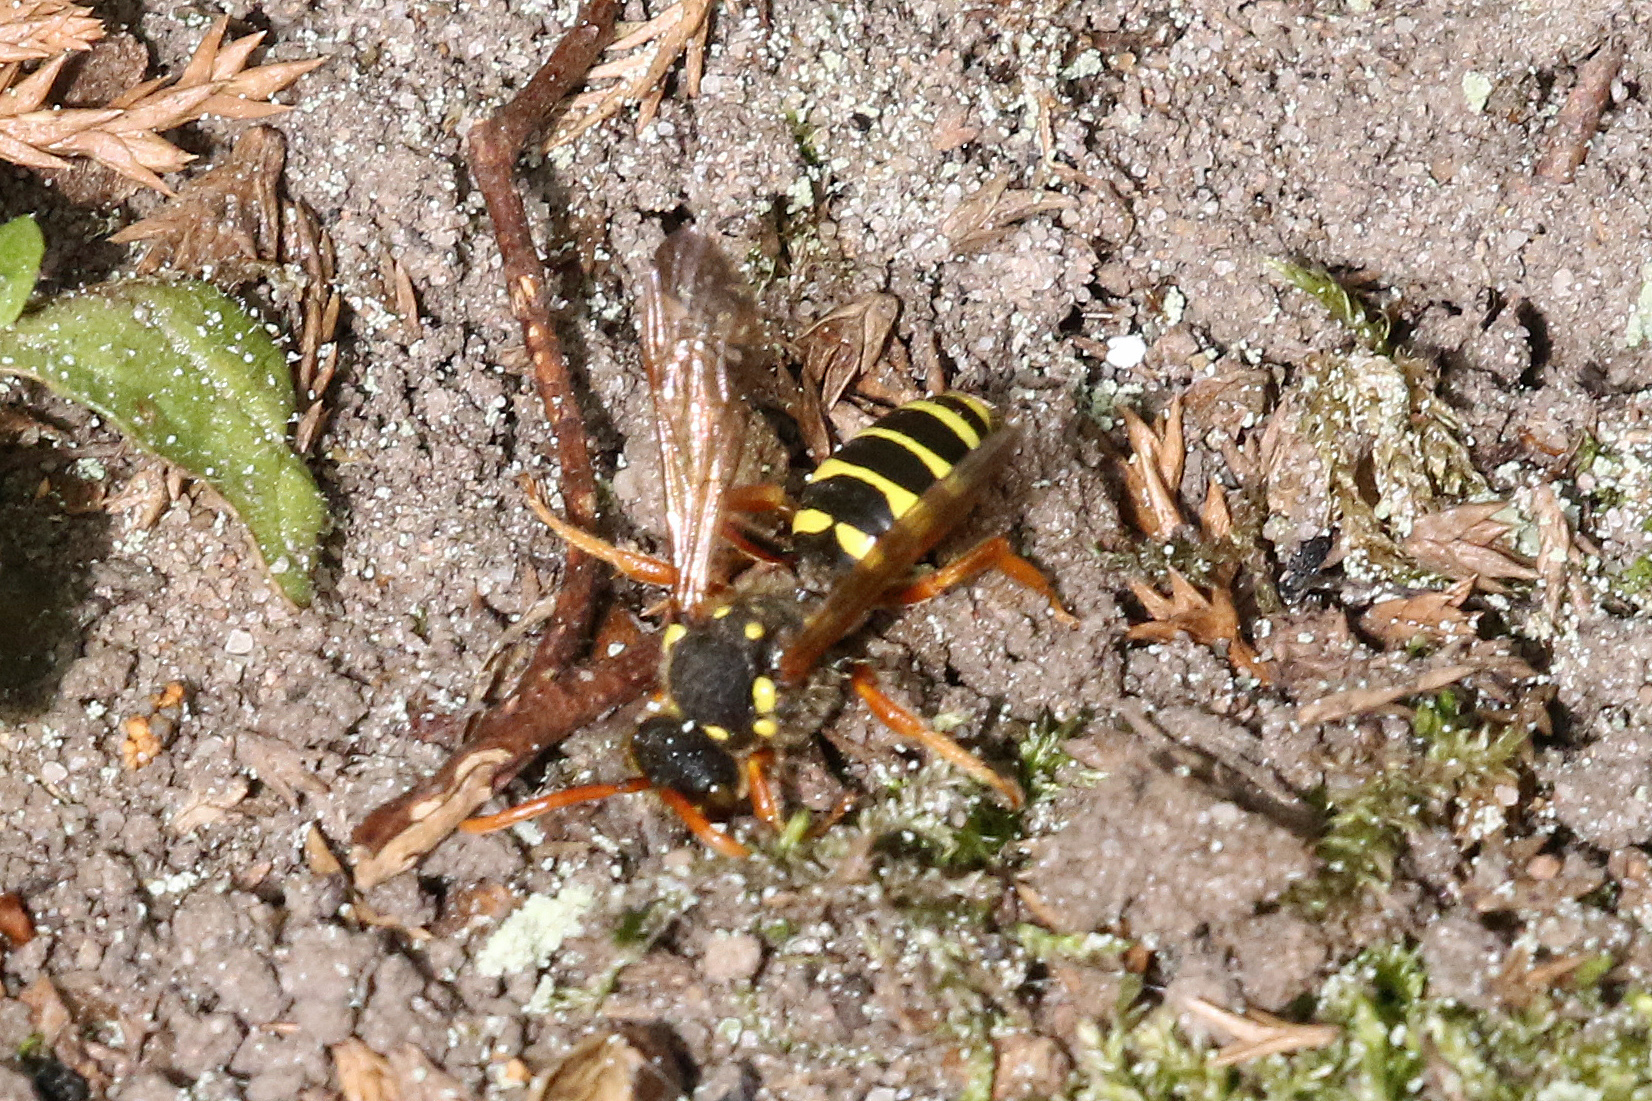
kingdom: Animalia
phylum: Arthropoda
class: Insecta
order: Hymenoptera
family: Apidae
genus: Nomada
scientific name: Nomada goodeniana
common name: Gooden's nomad bee
